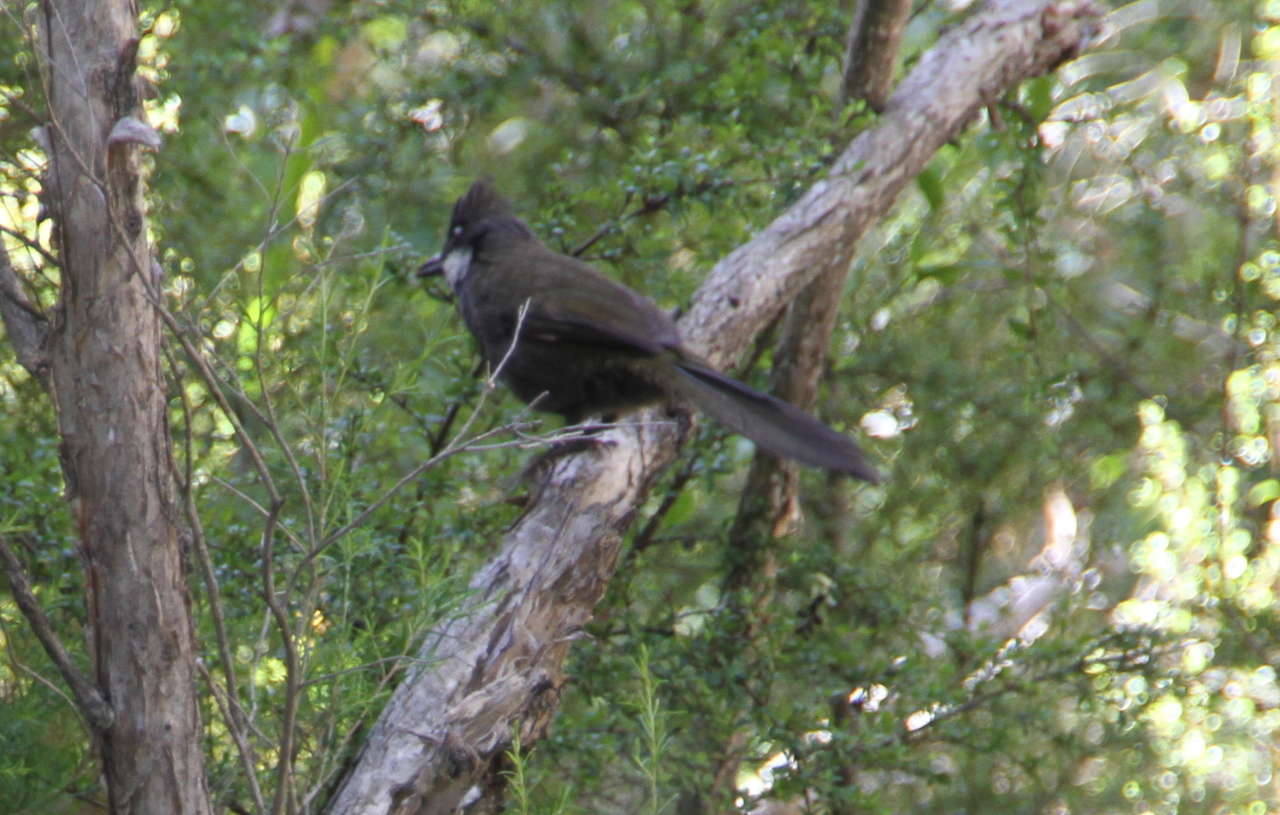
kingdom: Animalia
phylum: Chordata
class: Aves
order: Passeriformes
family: Psophodidae
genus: Psophodes
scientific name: Psophodes olivaceus
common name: Eastern whipbird
